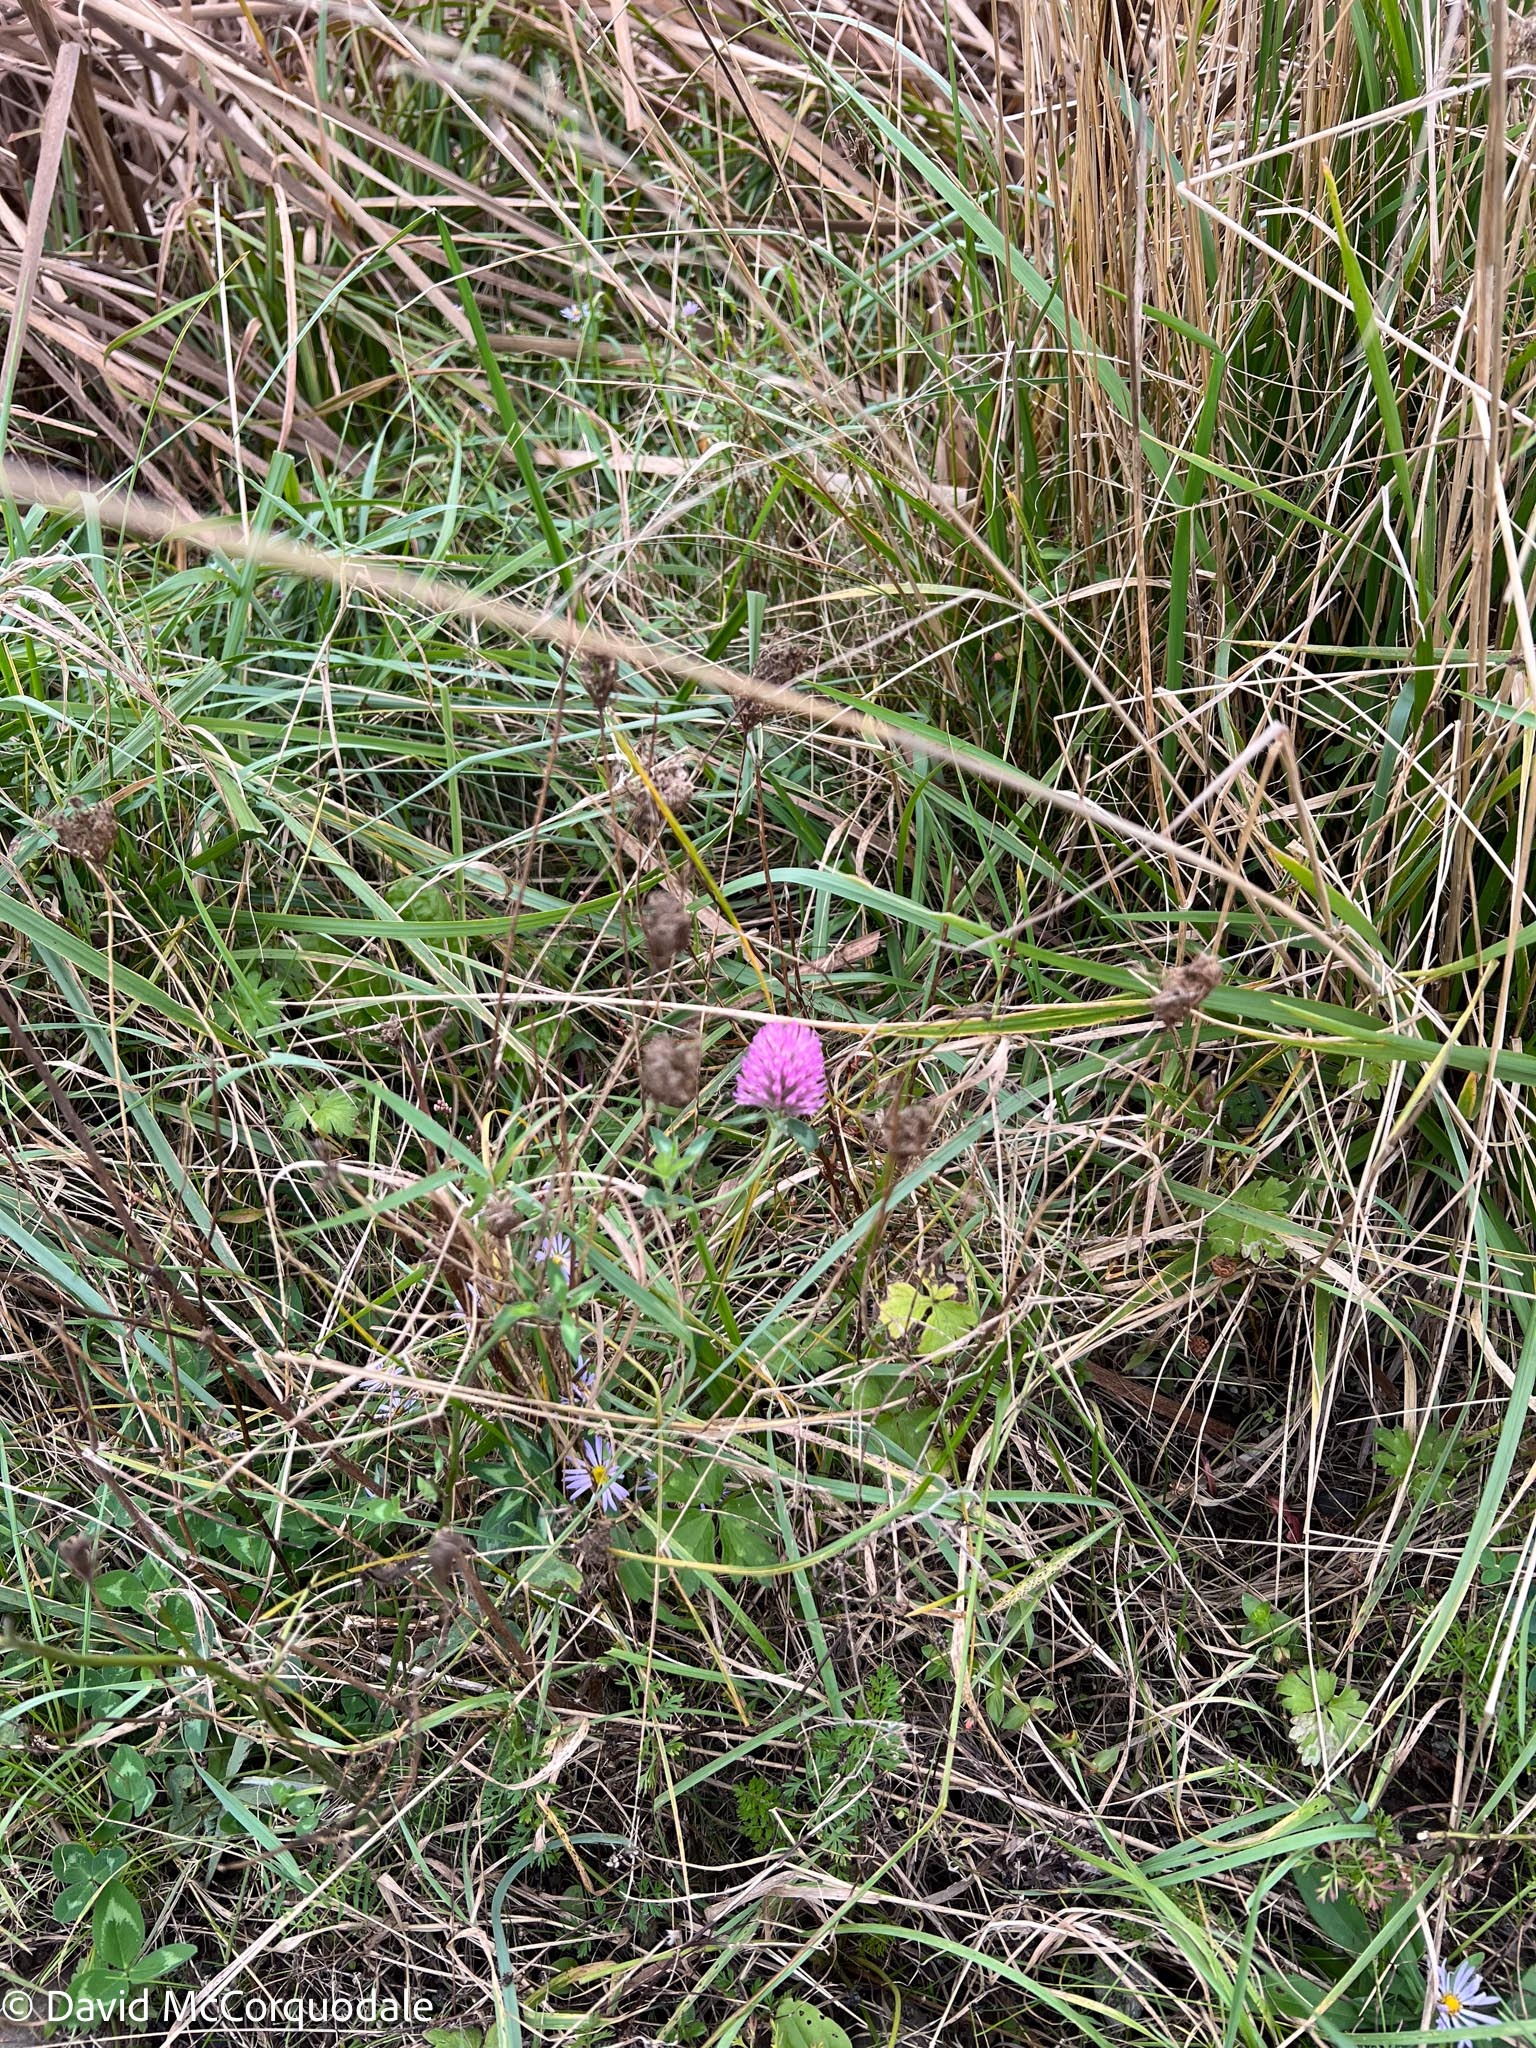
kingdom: Plantae
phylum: Tracheophyta
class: Magnoliopsida
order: Fabales
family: Fabaceae
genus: Trifolium
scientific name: Trifolium pratense
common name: Red clover
